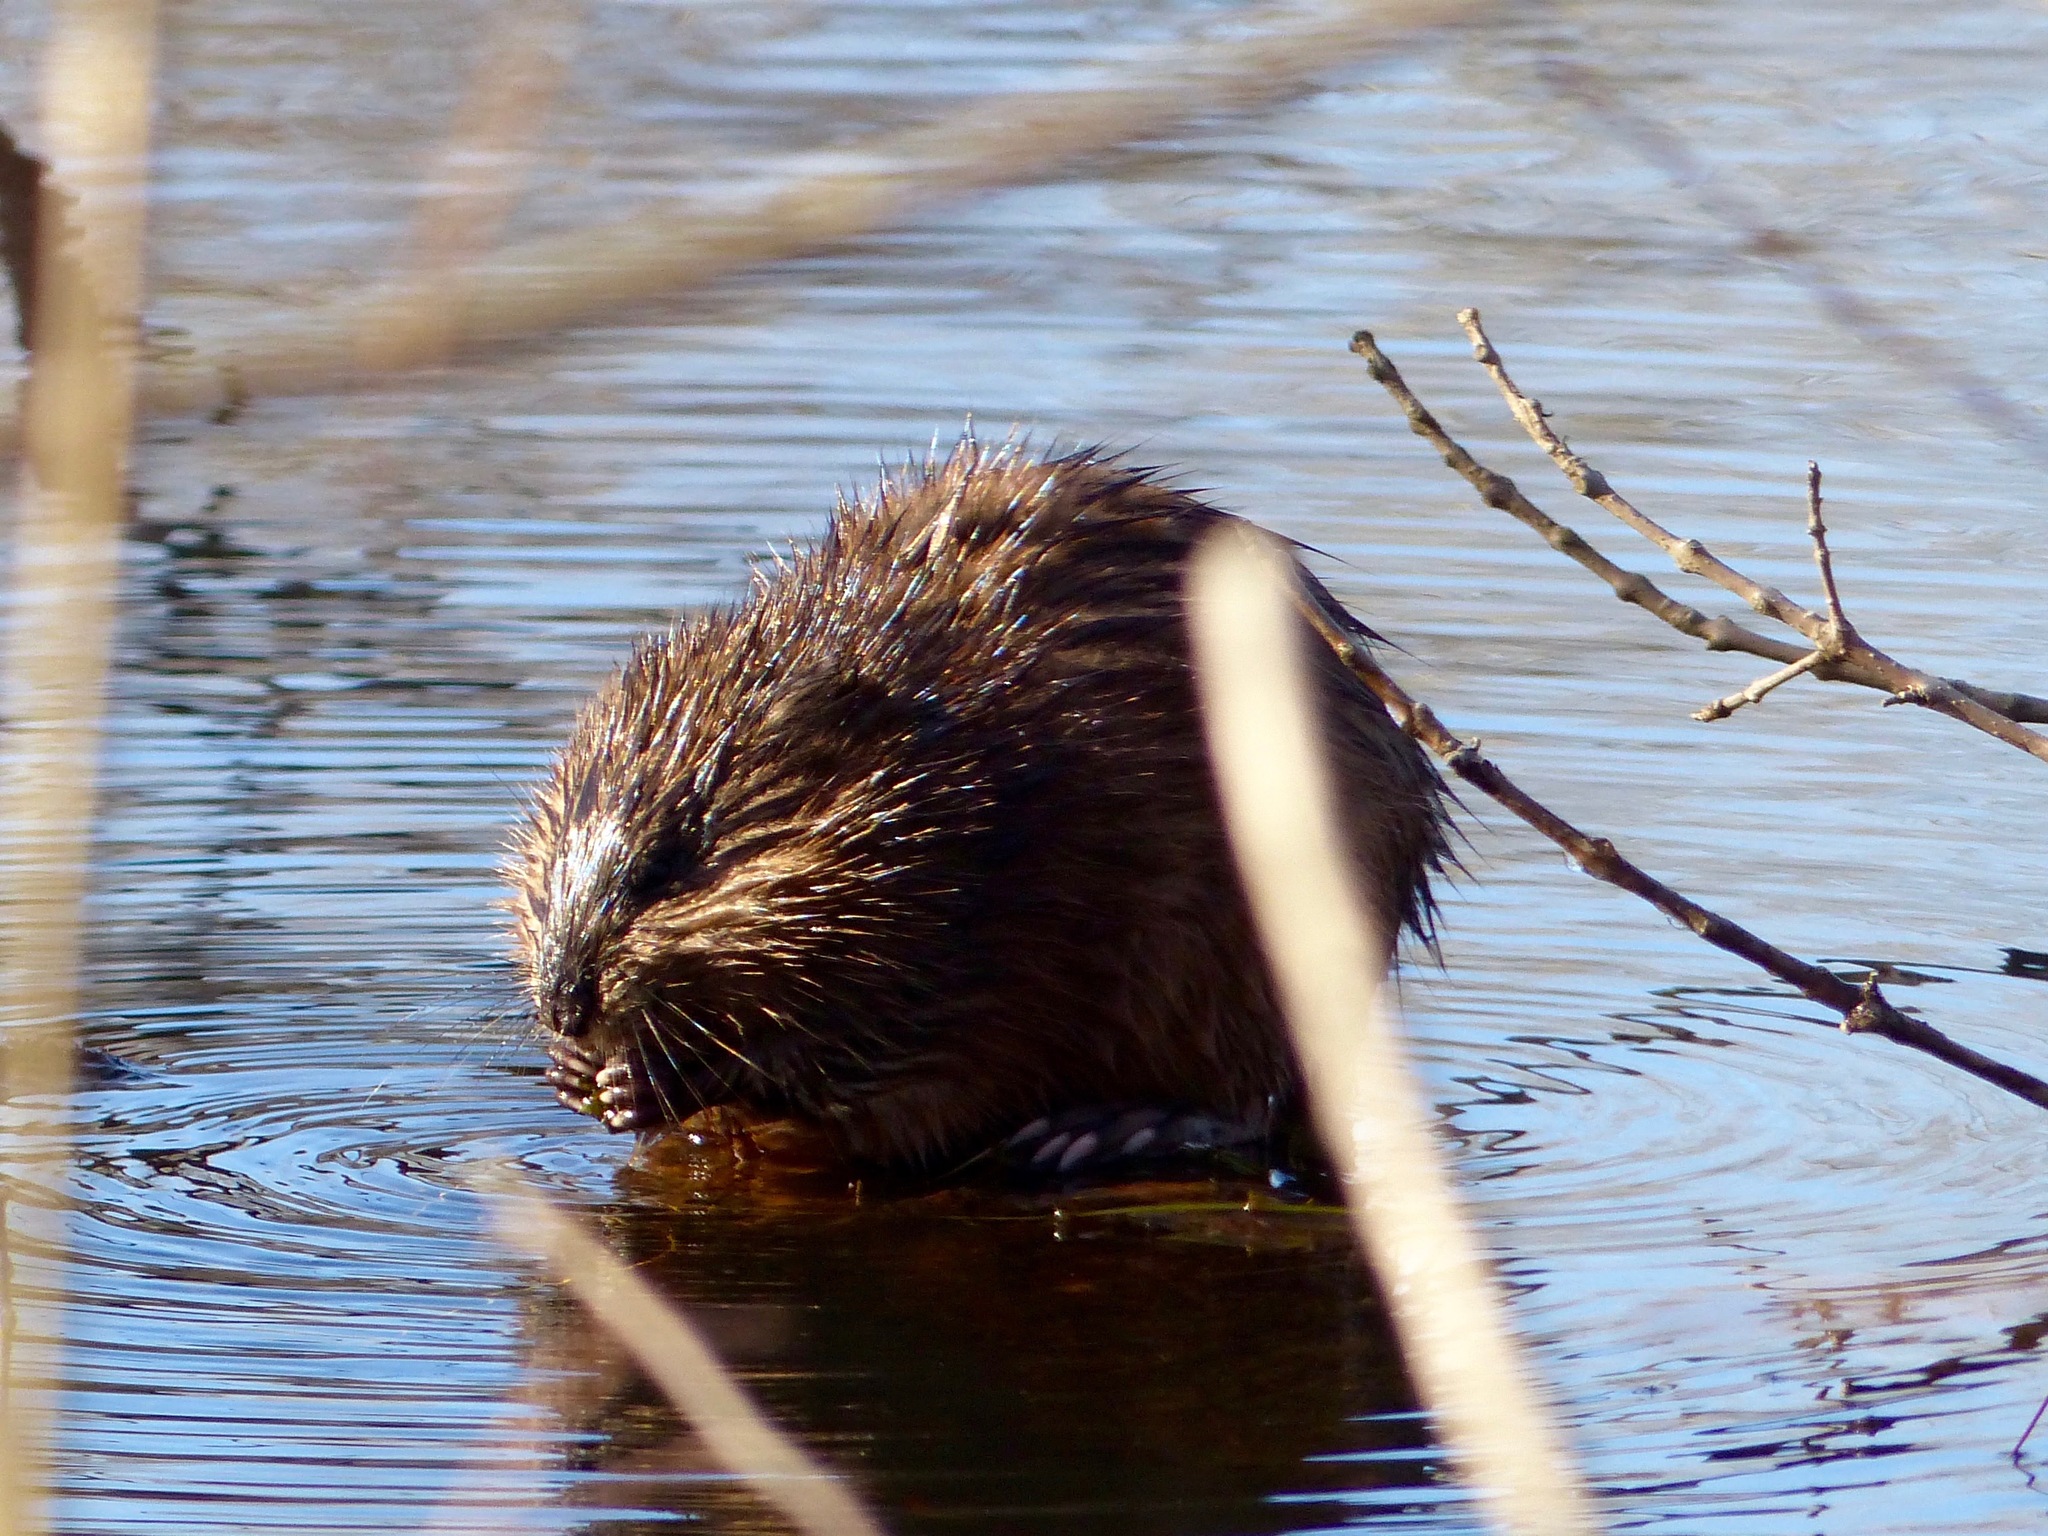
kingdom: Animalia
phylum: Chordata
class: Mammalia
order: Rodentia
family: Cricetidae
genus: Ondatra
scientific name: Ondatra zibethicus
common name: Muskrat
